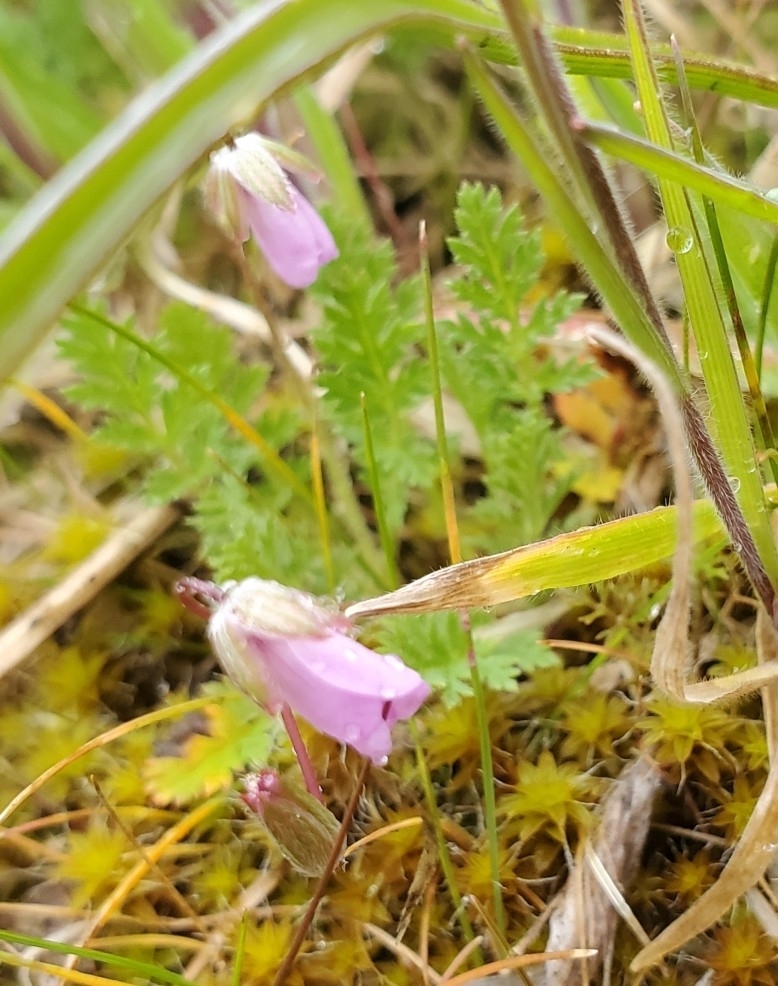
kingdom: Plantae
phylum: Tracheophyta
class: Magnoliopsida
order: Geraniales
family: Geraniaceae
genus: Erodium
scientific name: Erodium cicutarium
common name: Common stork's-bill
